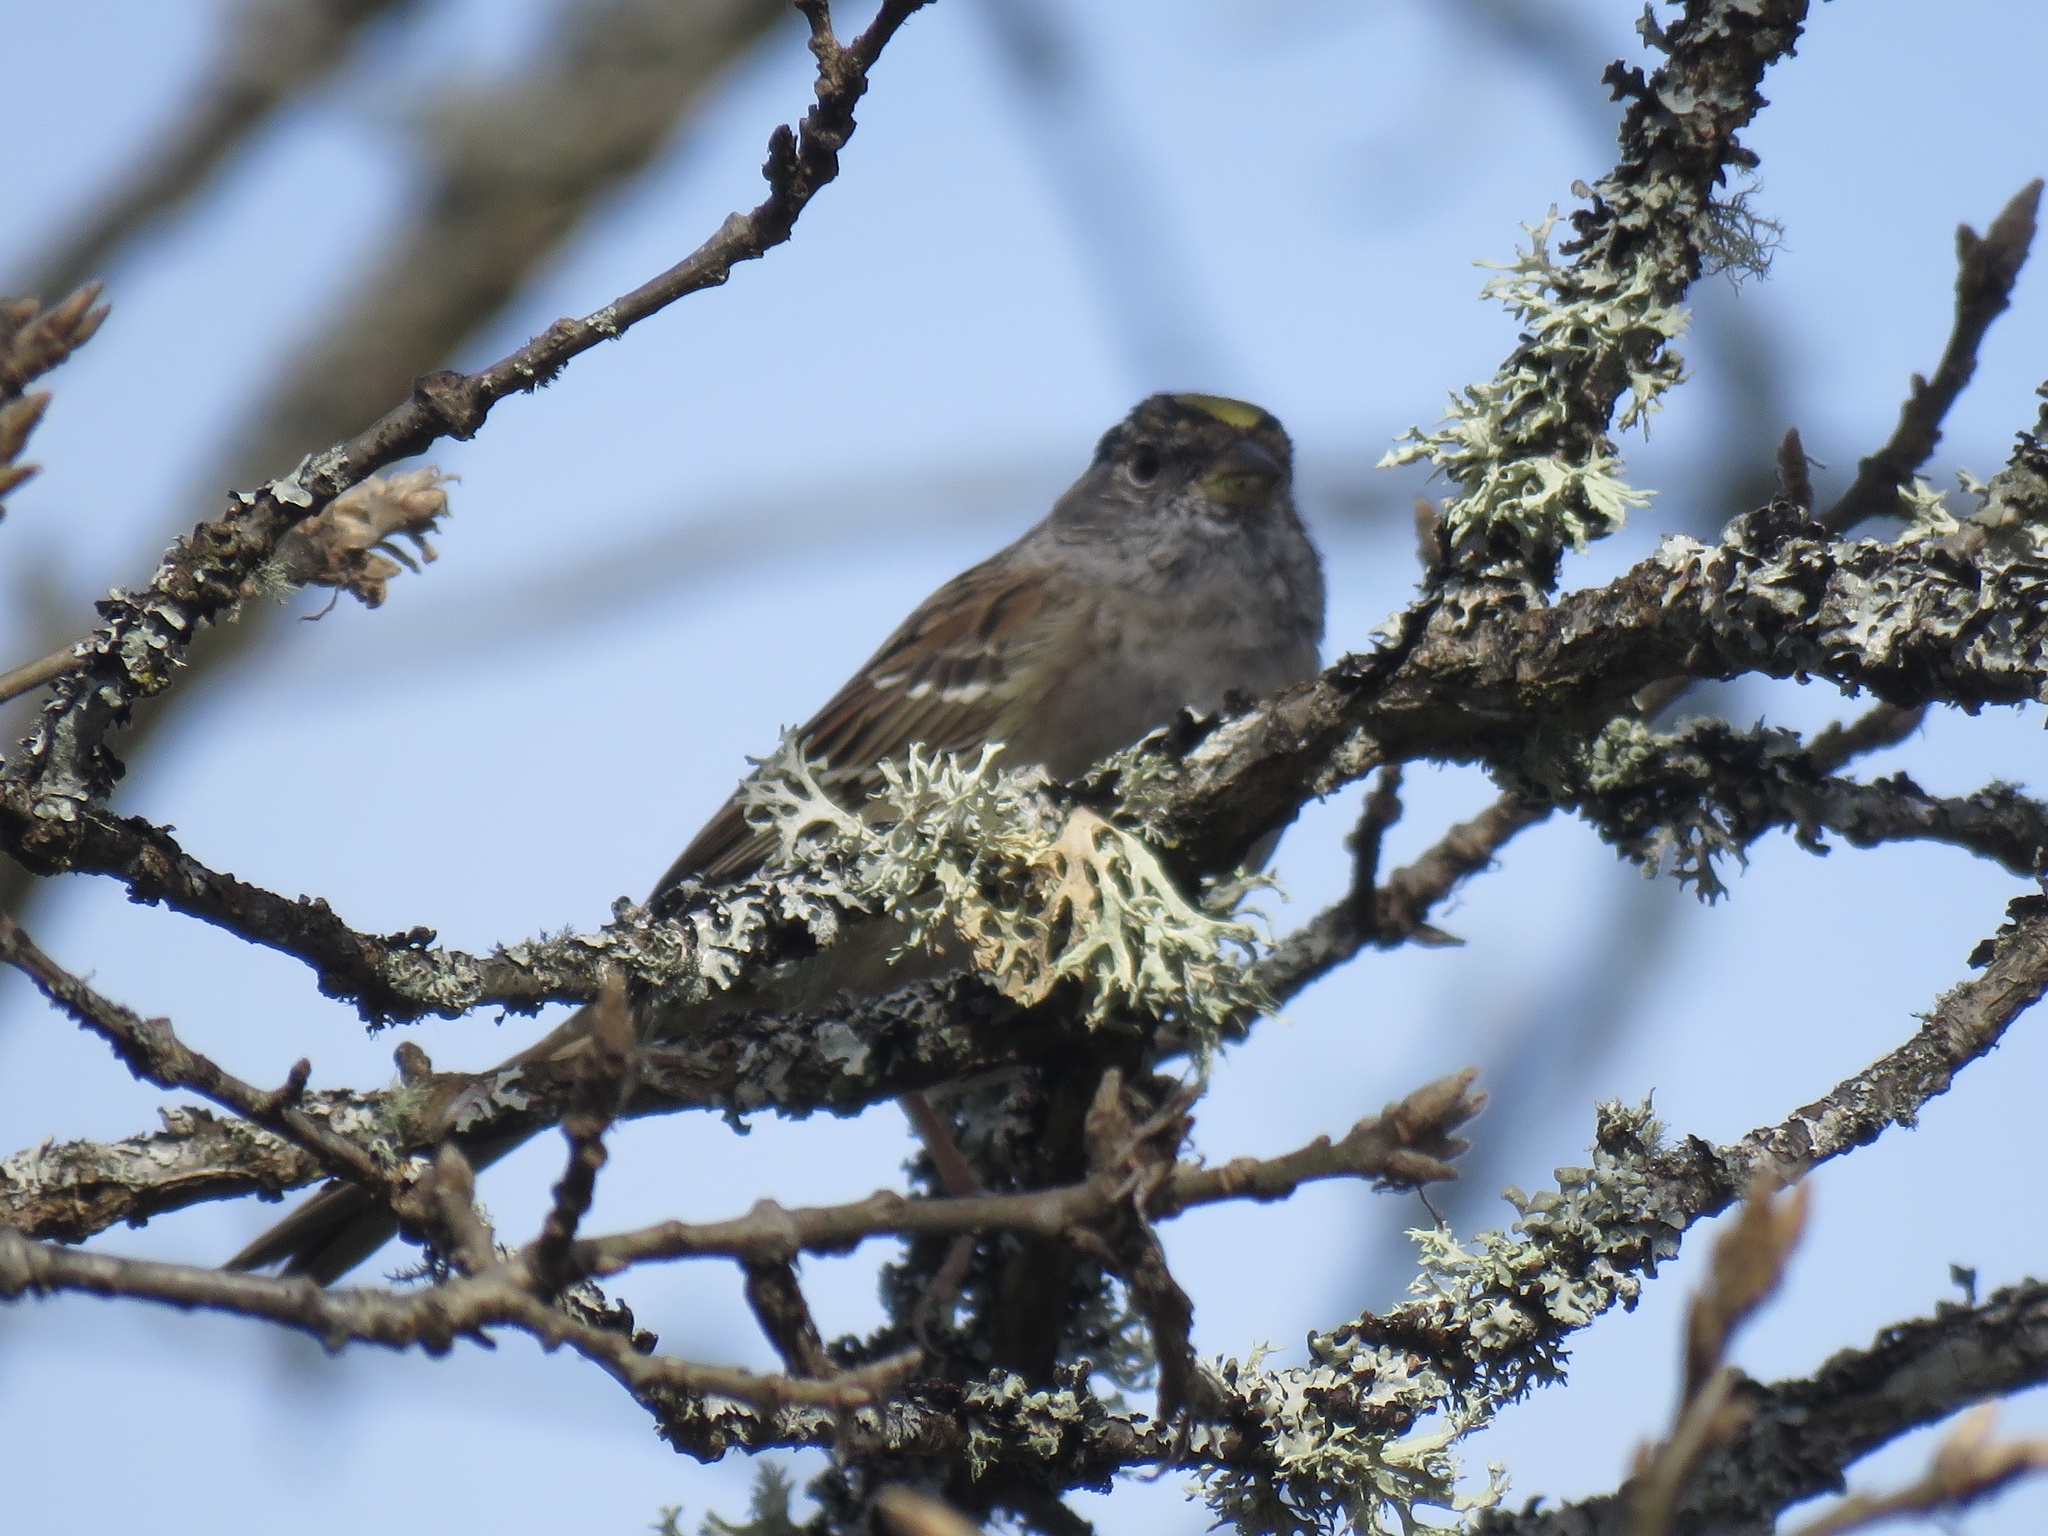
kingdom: Animalia
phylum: Chordata
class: Aves
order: Passeriformes
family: Passerellidae
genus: Zonotrichia
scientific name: Zonotrichia atricapilla
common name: Golden-crowned sparrow
